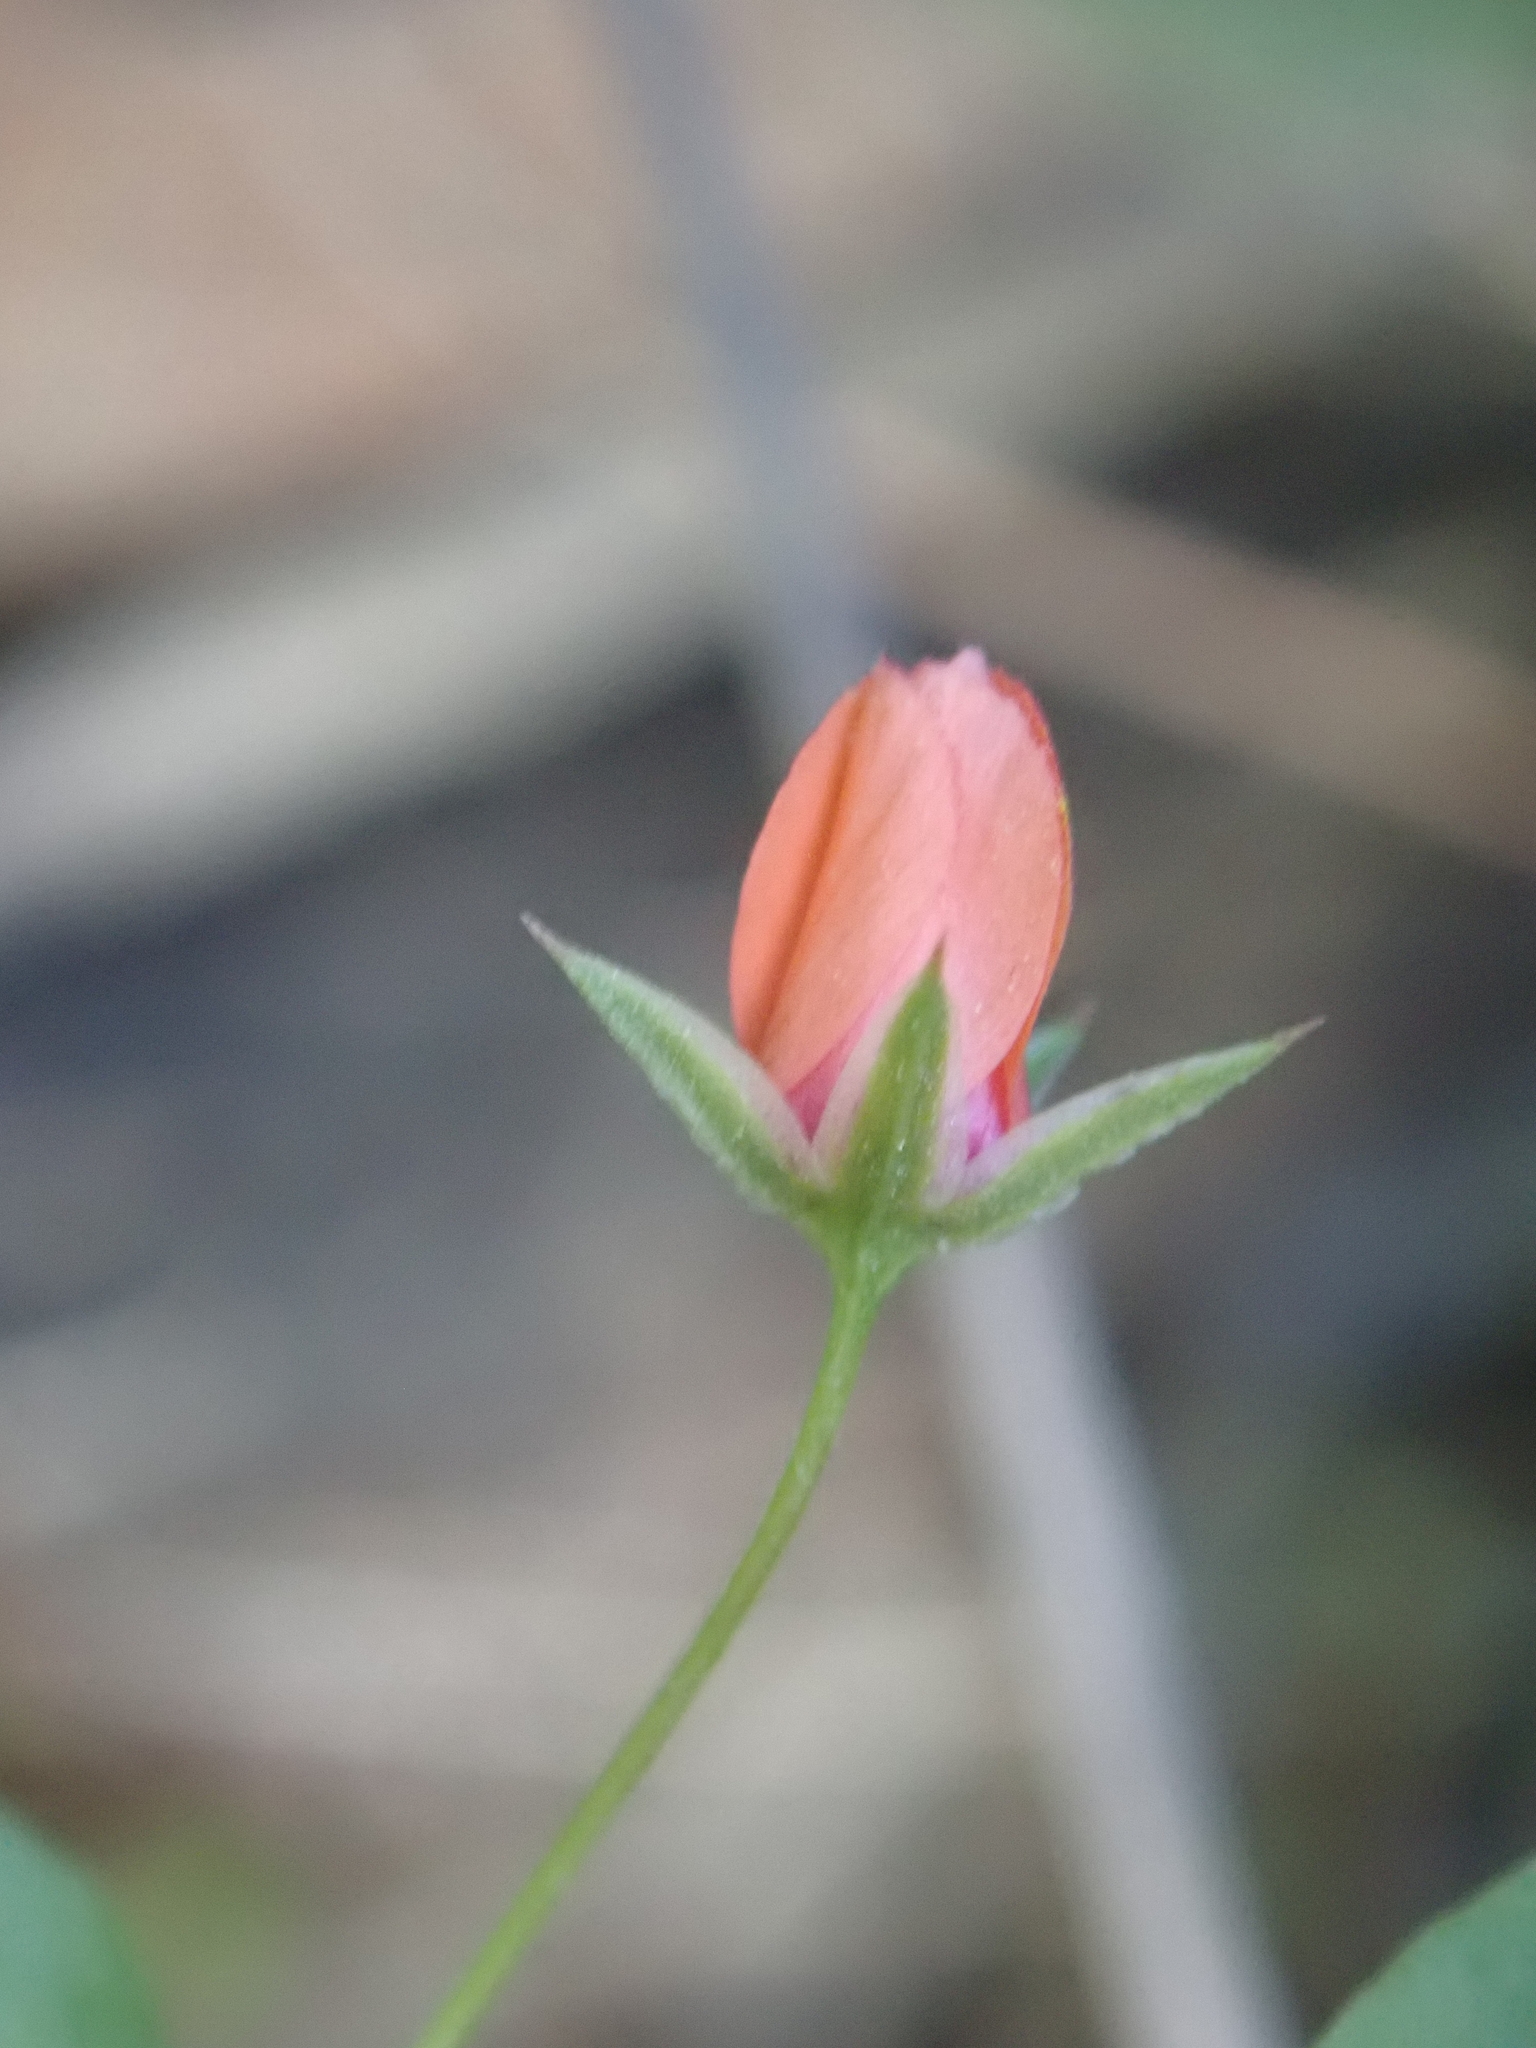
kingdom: Plantae
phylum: Tracheophyta
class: Magnoliopsida
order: Ericales
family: Primulaceae
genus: Lysimachia
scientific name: Lysimachia arvensis
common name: Scarlet pimpernel
